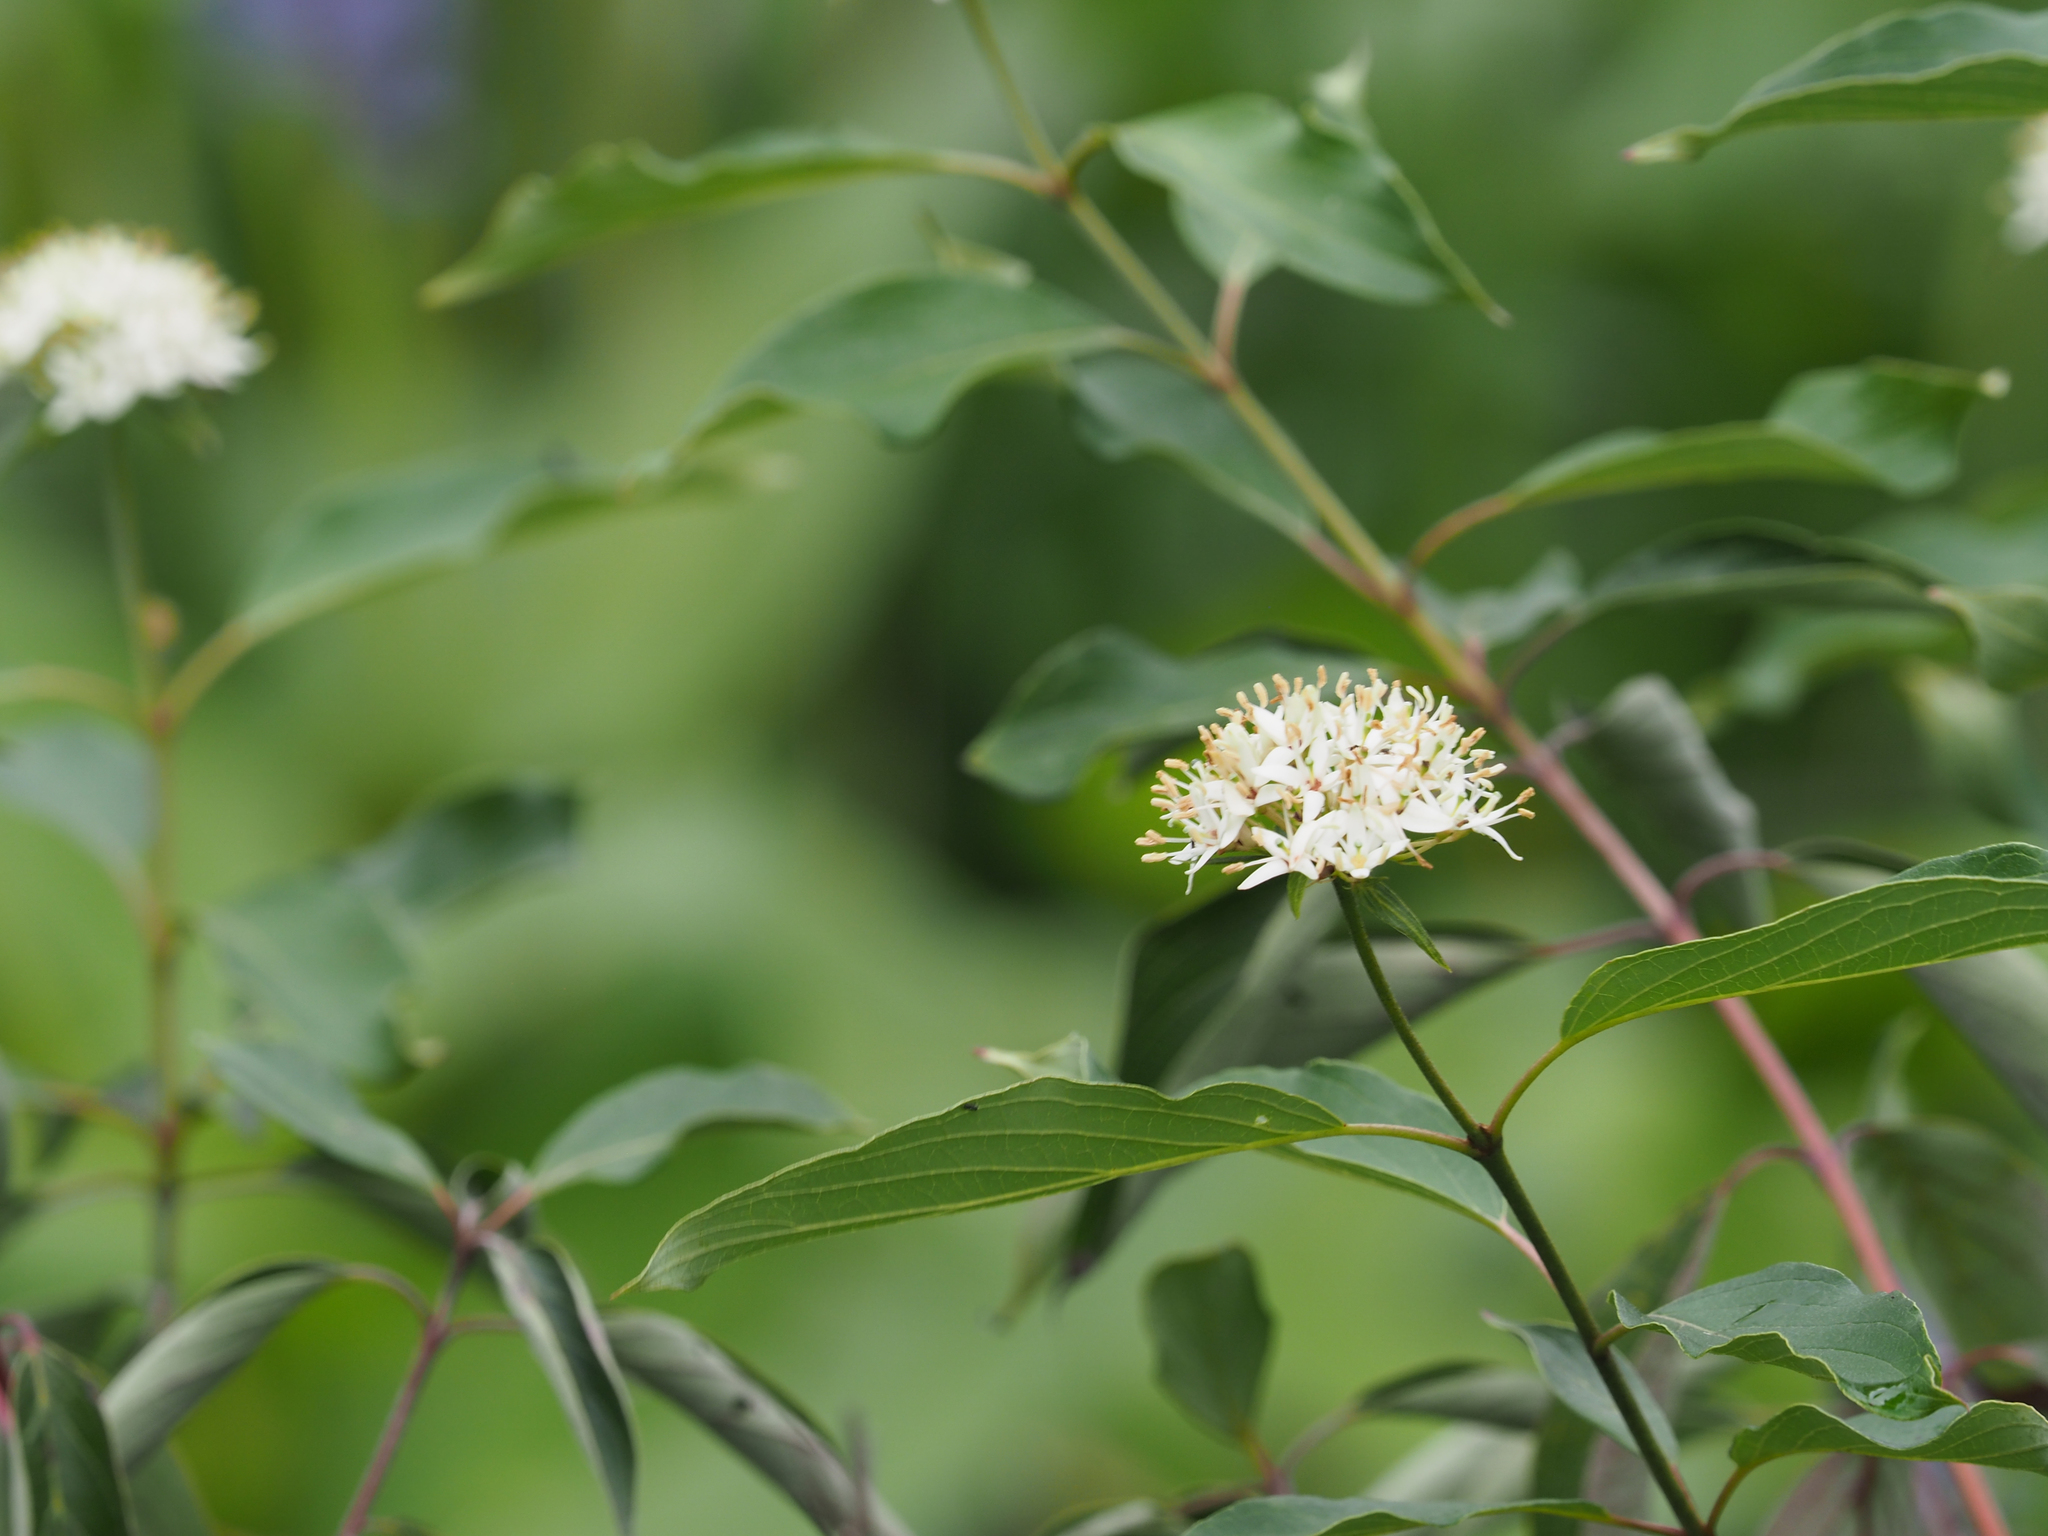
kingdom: Plantae
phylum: Tracheophyta
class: Magnoliopsida
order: Cornales
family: Cornaceae
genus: Cornus
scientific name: Cornus amomum
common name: Silky dogwood
